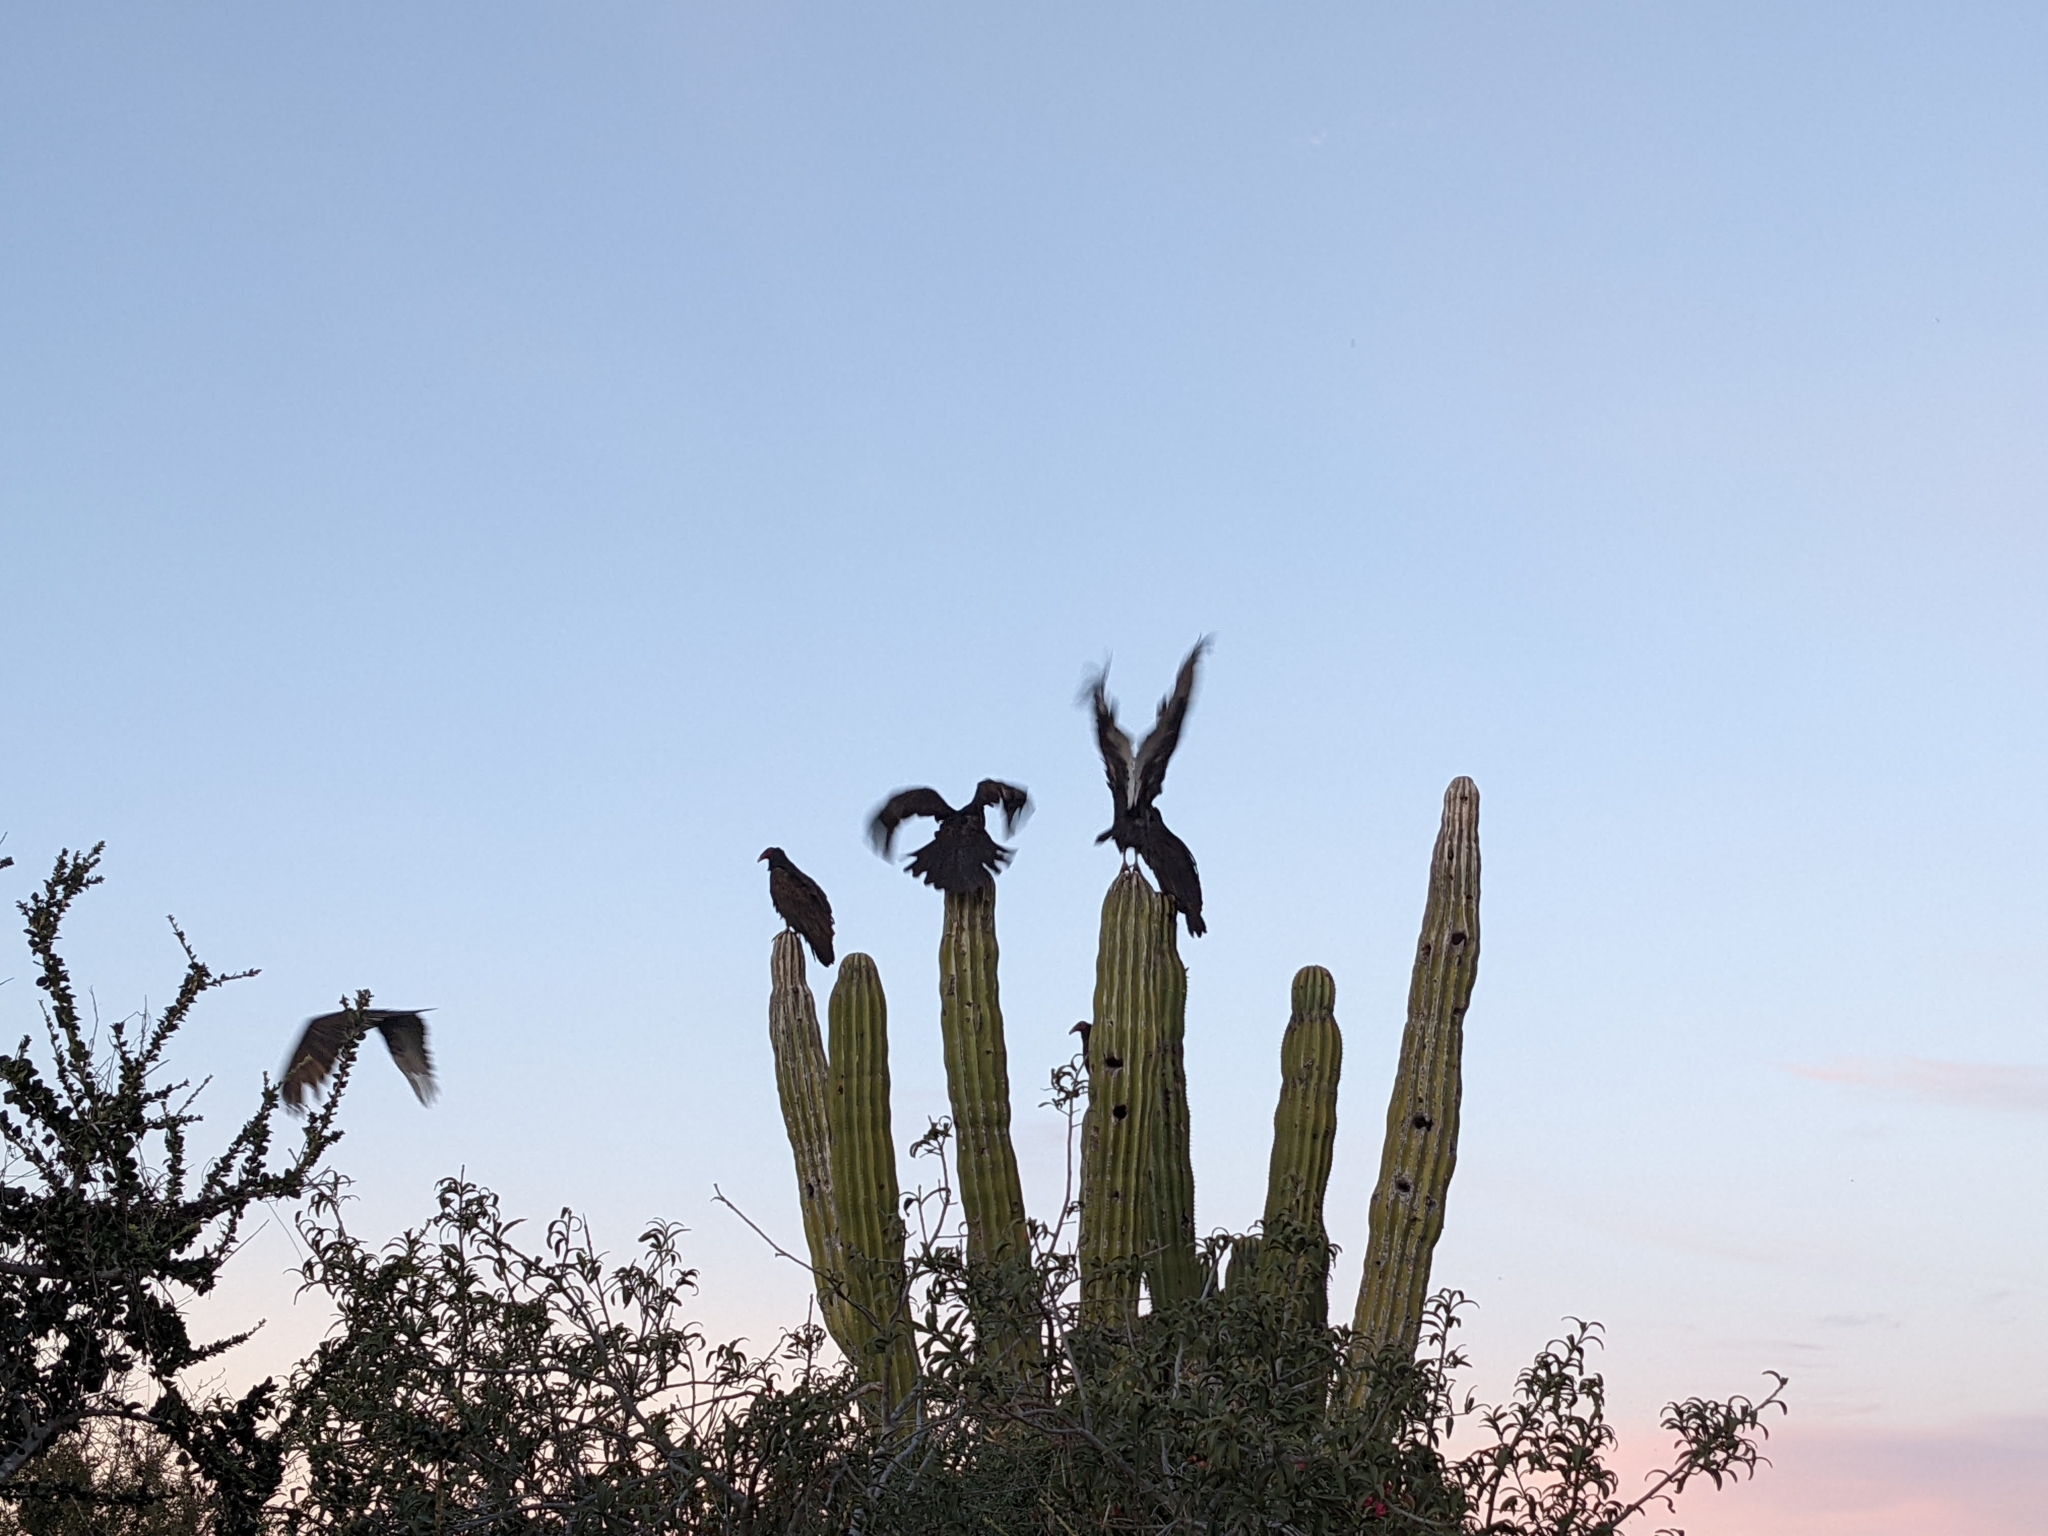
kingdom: Plantae
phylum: Tracheophyta
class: Magnoliopsida
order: Caryophyllales
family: Cactaceae
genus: Pachycereus
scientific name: Pachycereus pringlei
